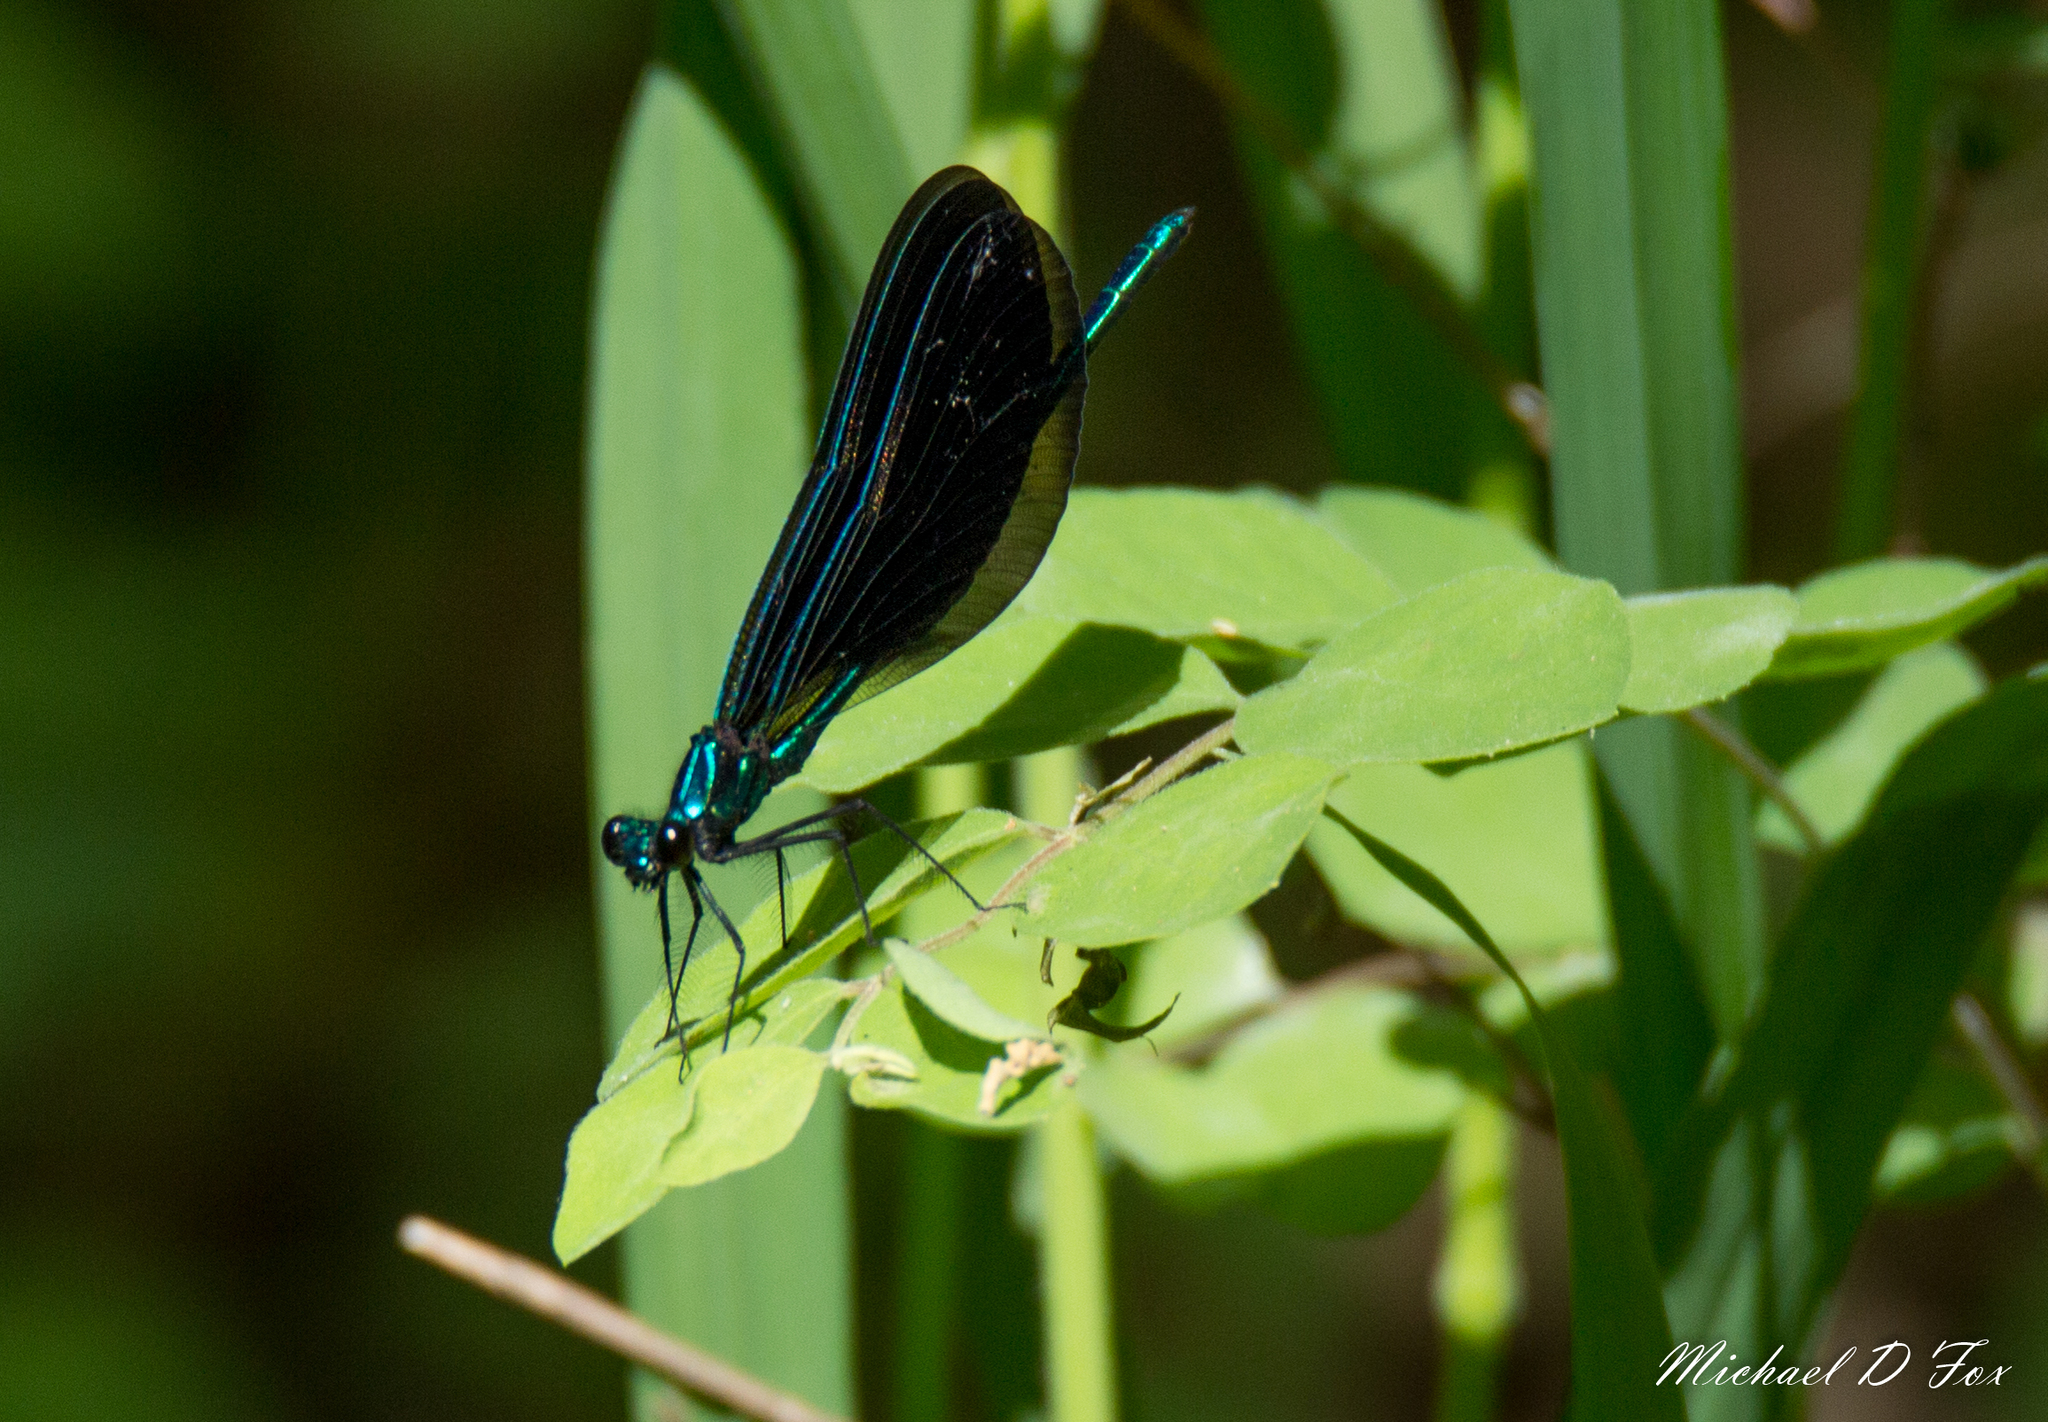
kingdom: Animalia
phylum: Arthropoda
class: Insecta
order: Odonata
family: Calopterygidae
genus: Calopteryx
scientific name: Calopteryx maculata
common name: Ebony jewelwing
